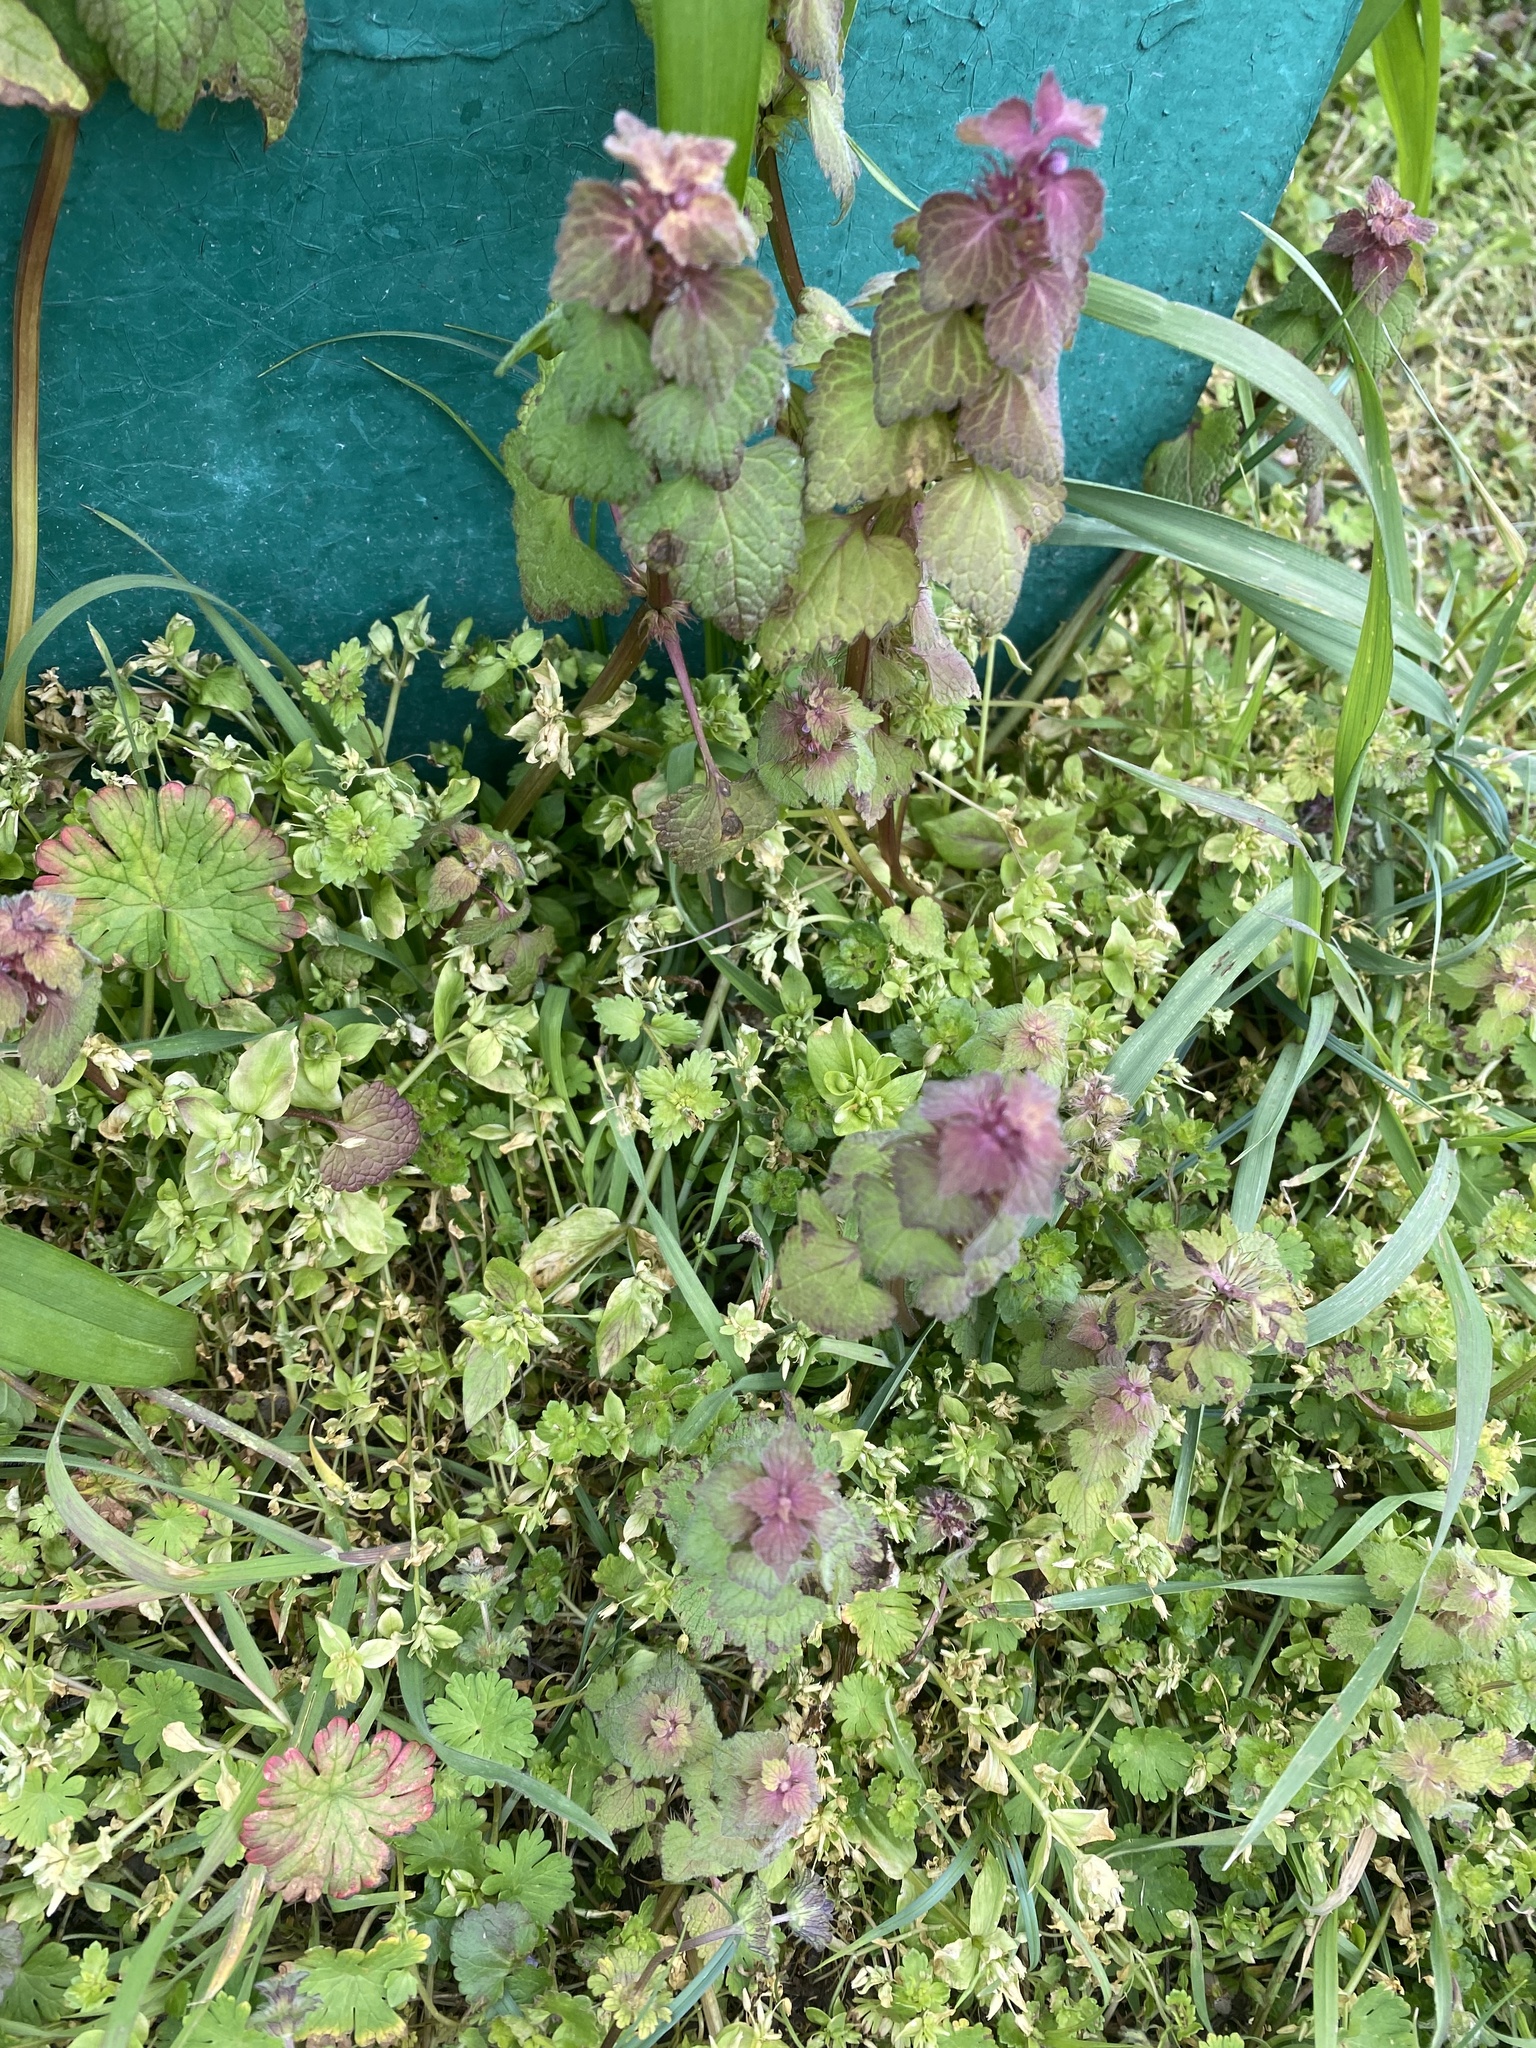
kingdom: Plantae
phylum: Tracheophyta
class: Magnoliopsida
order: Lamiales
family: Lamiaceae
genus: Lamium
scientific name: Lamium purpureum
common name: Red dead-nettle
